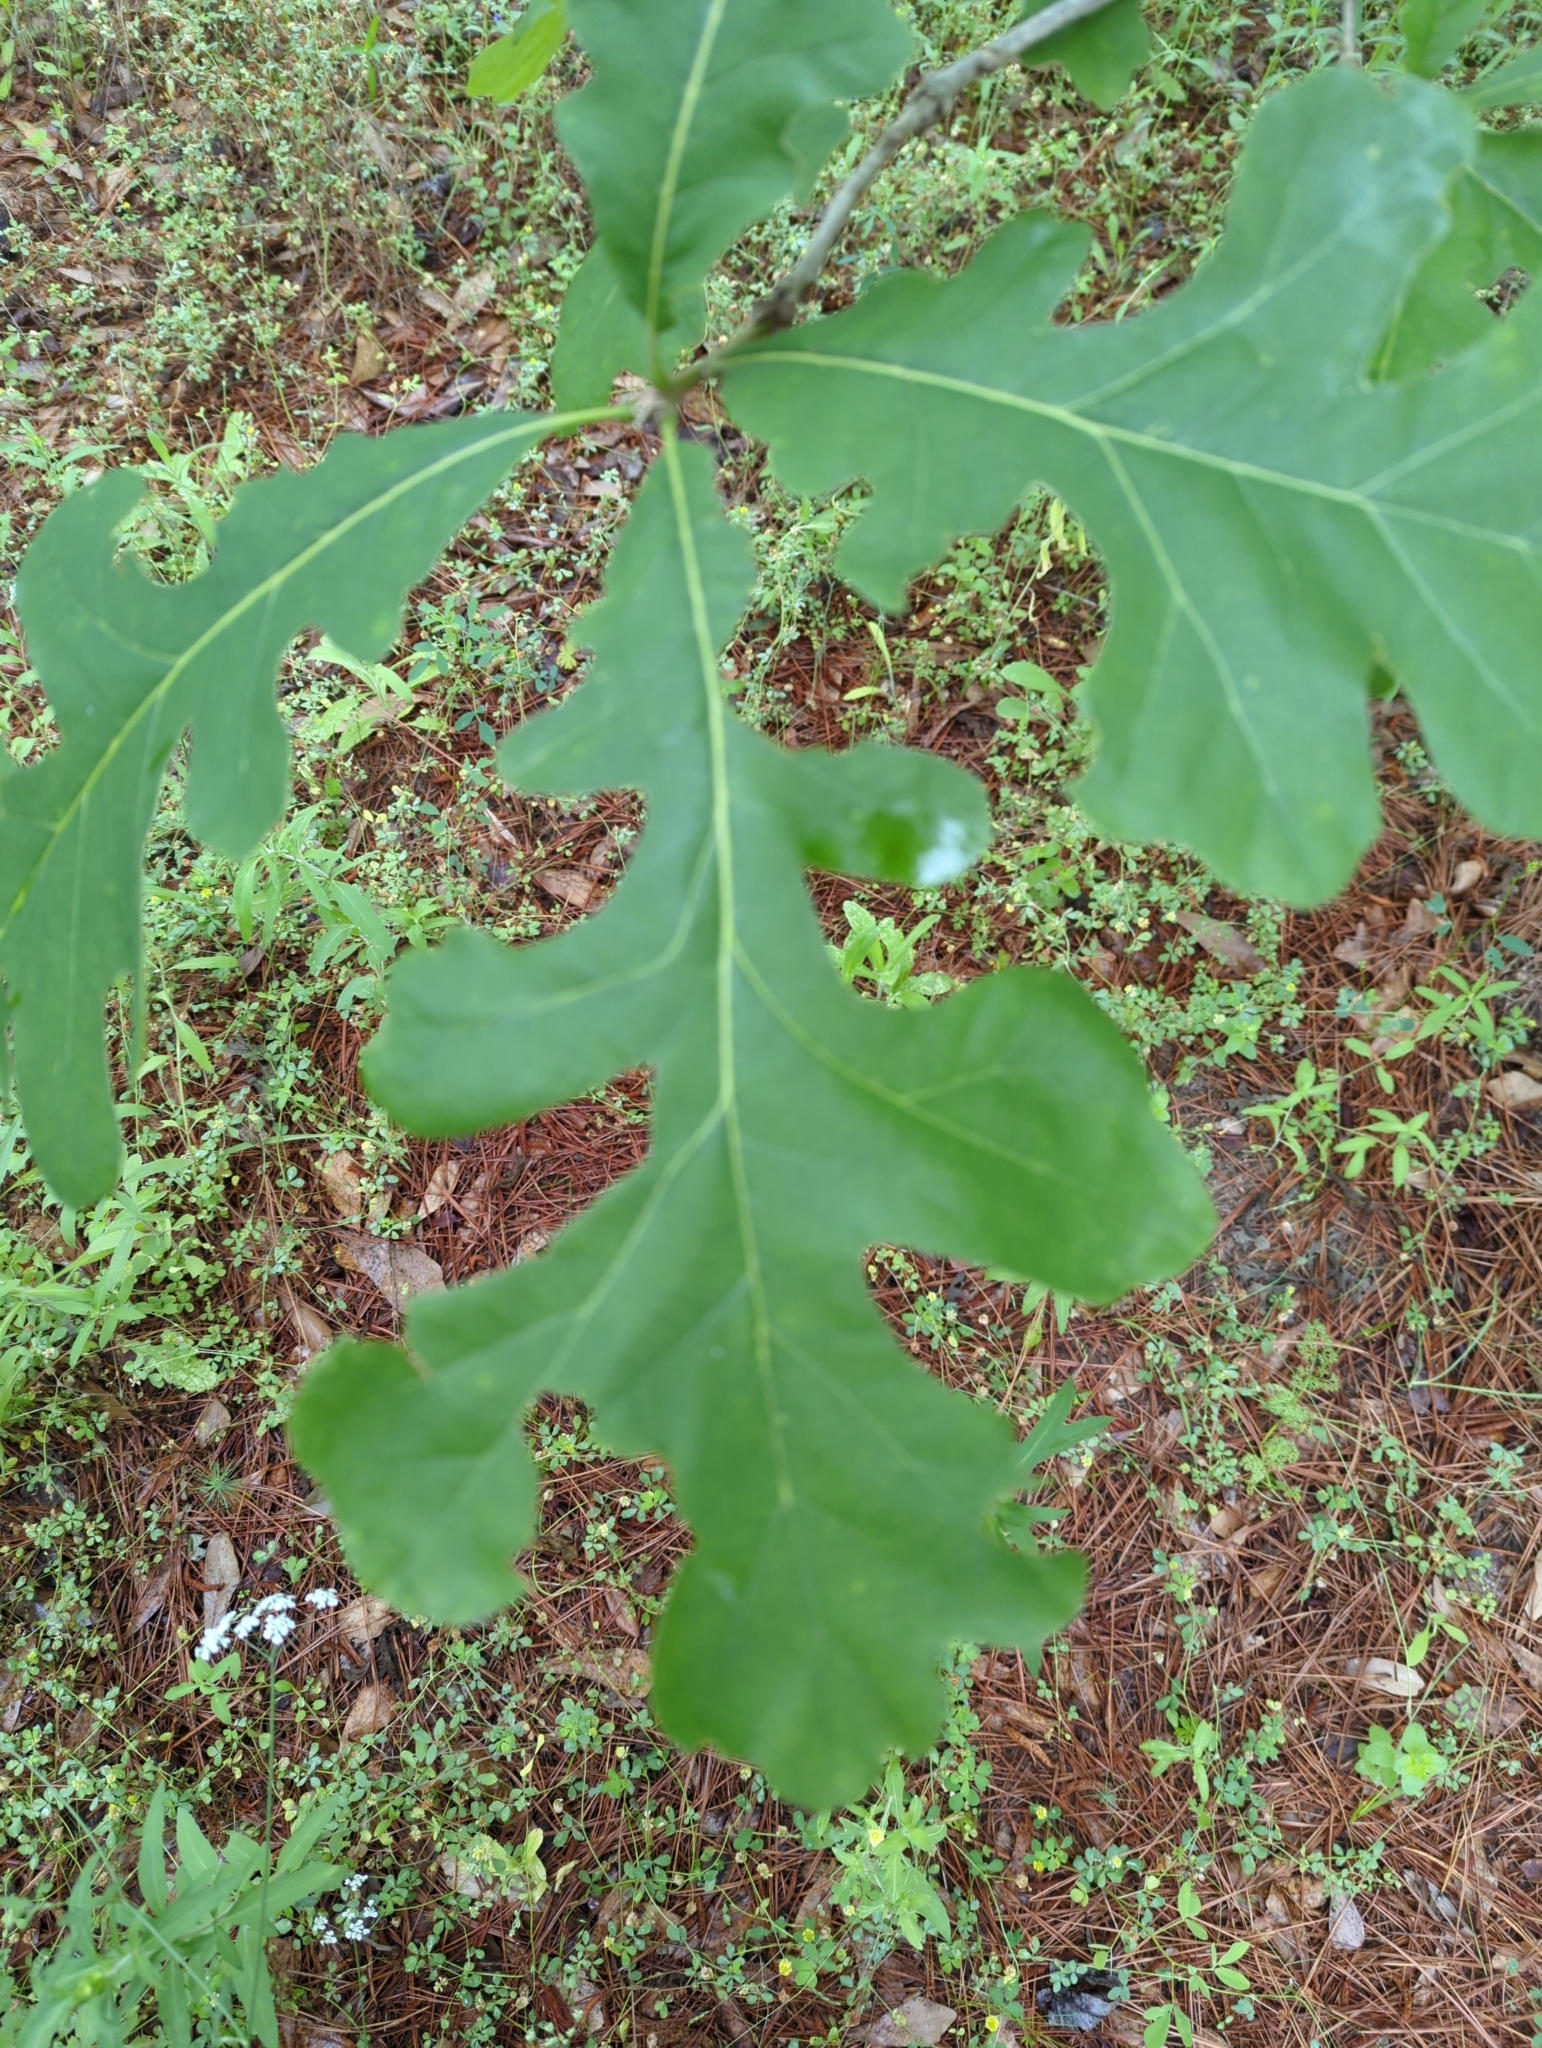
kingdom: Plantae
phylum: Tracheophyta
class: Magnoliopsida
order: Fagales
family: Fagaceae
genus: Quercus
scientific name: Quercus alba
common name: White oak
